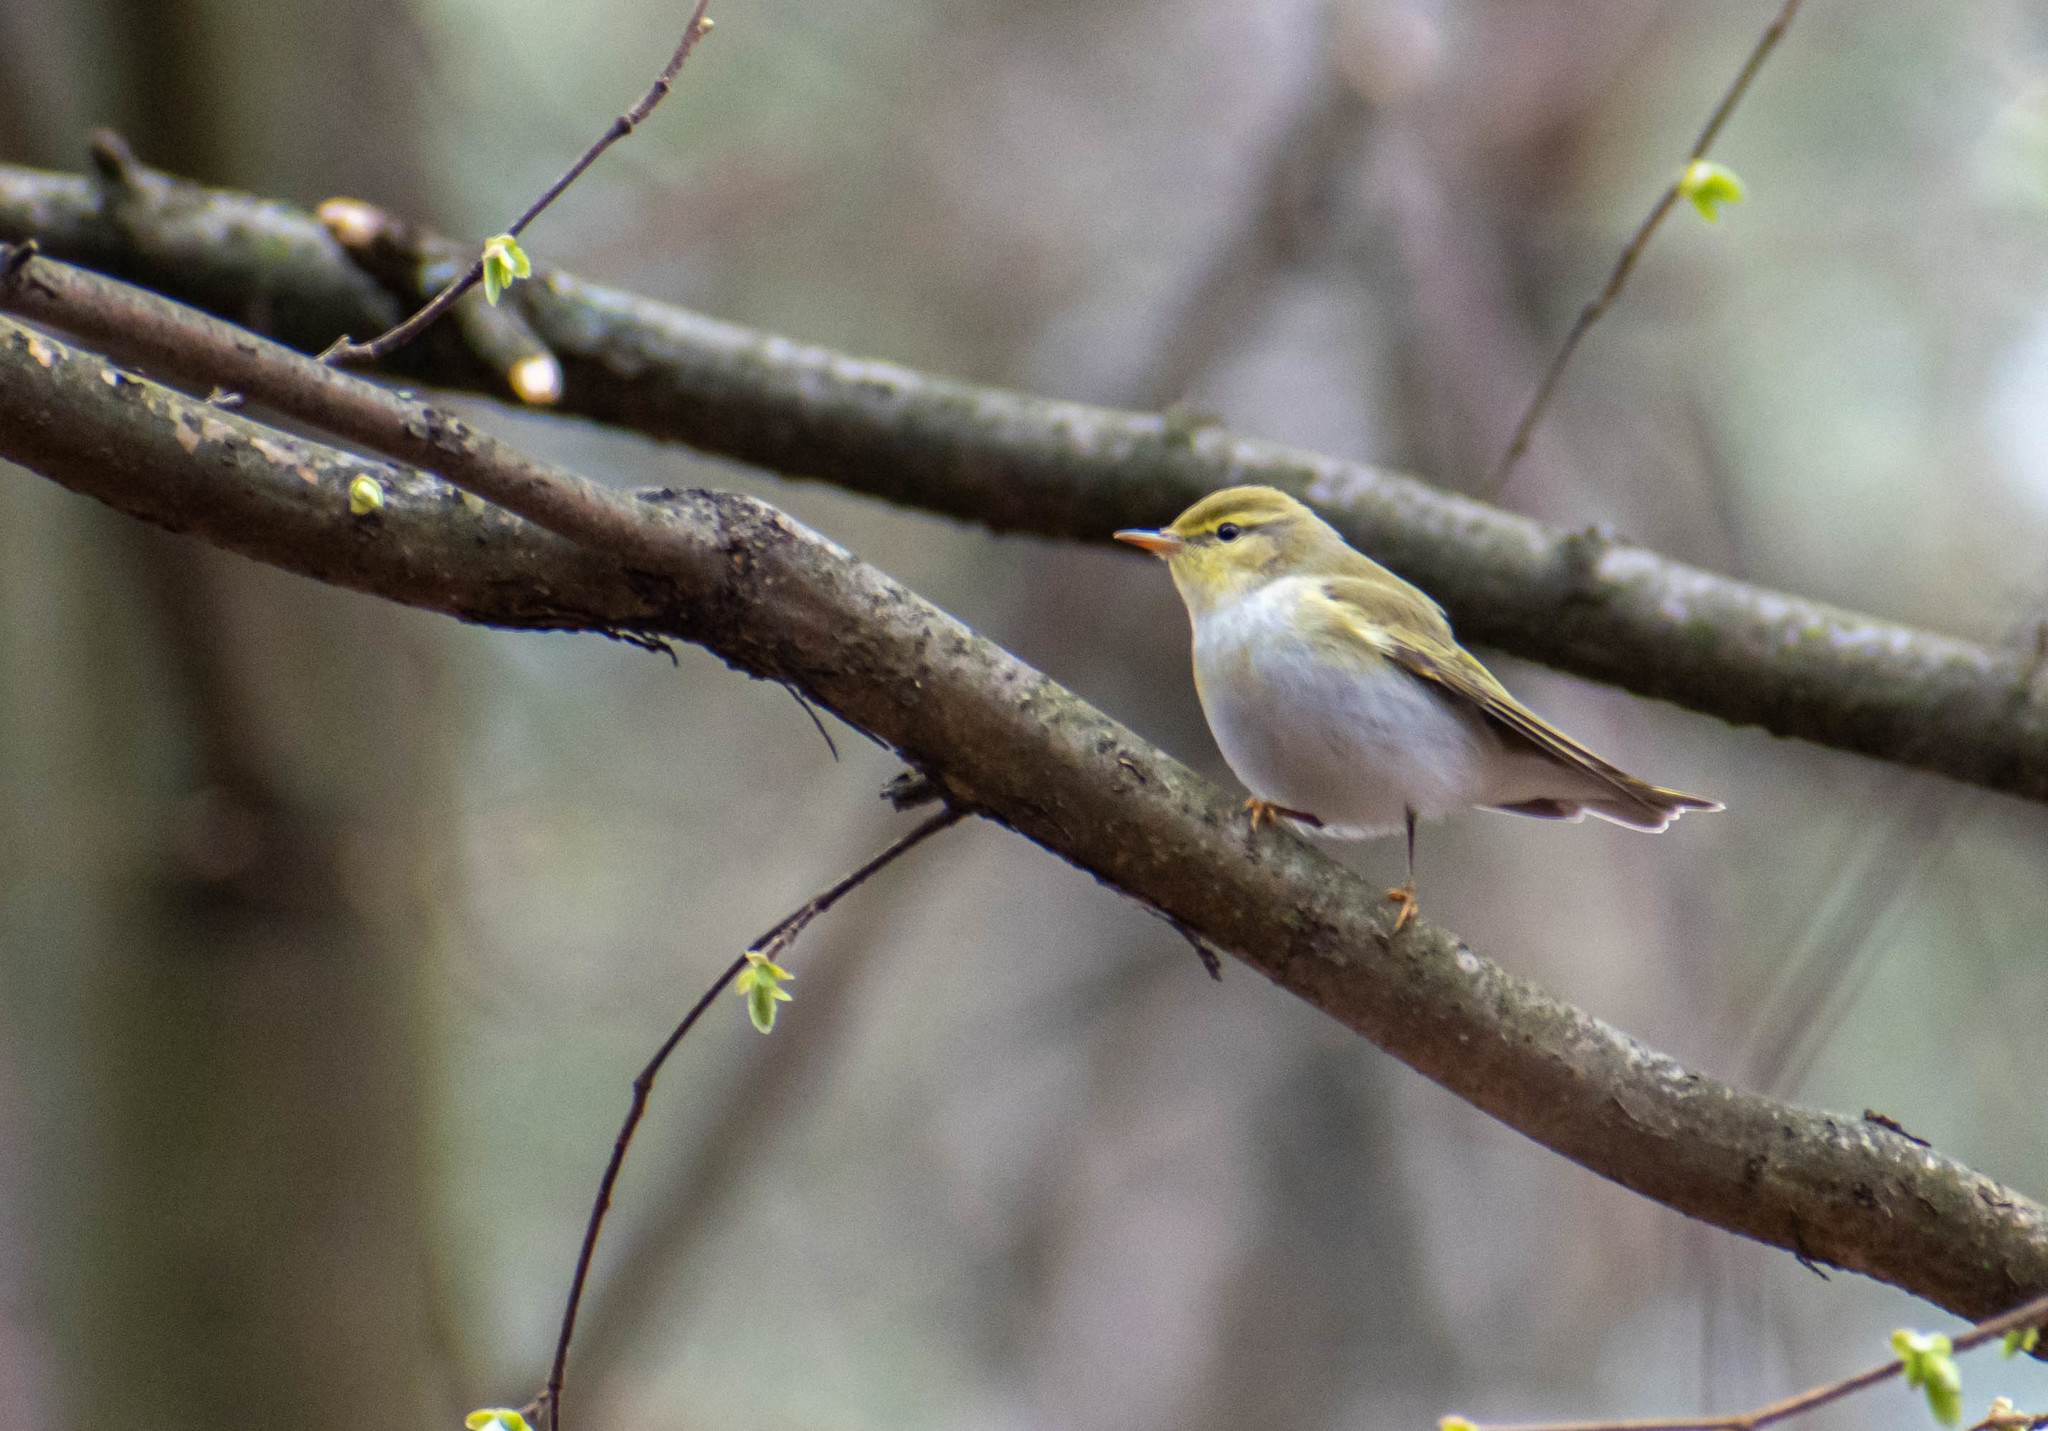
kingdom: Animalia
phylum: Chordata
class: Aves
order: Passeriformes
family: Phylloscopidae
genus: Phylloscopus
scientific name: Phylloscopus sibillatrix
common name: Wood warbler
